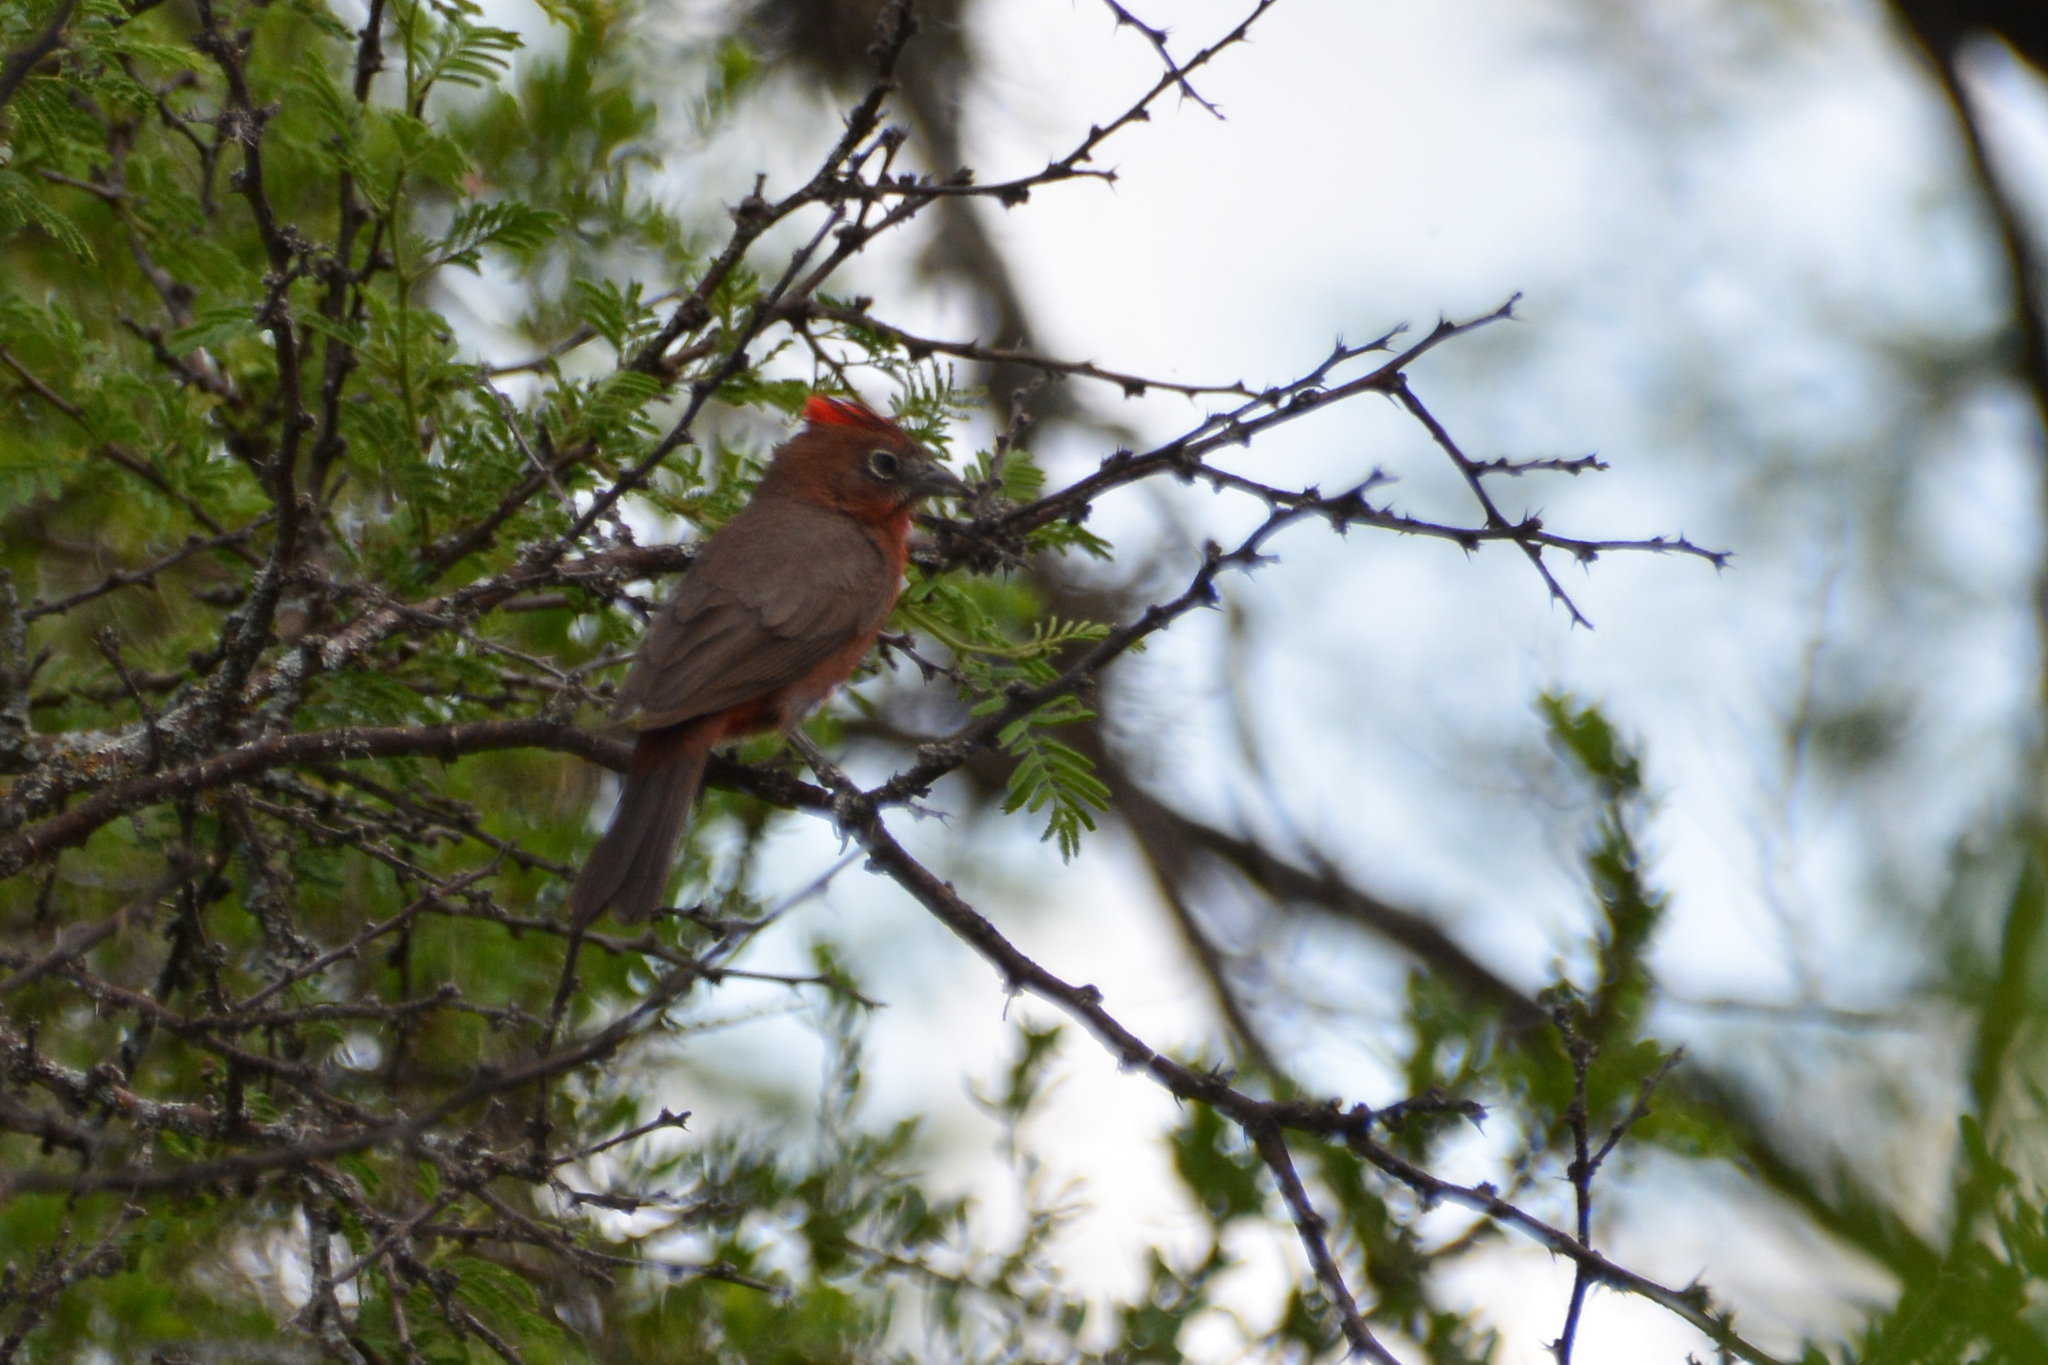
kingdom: Animalia
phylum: Chordata
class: Aves
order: Passeriformes
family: Thraupidae
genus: Coryphospingus
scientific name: Coryphospingus cucullatus
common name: Red pileated finch
